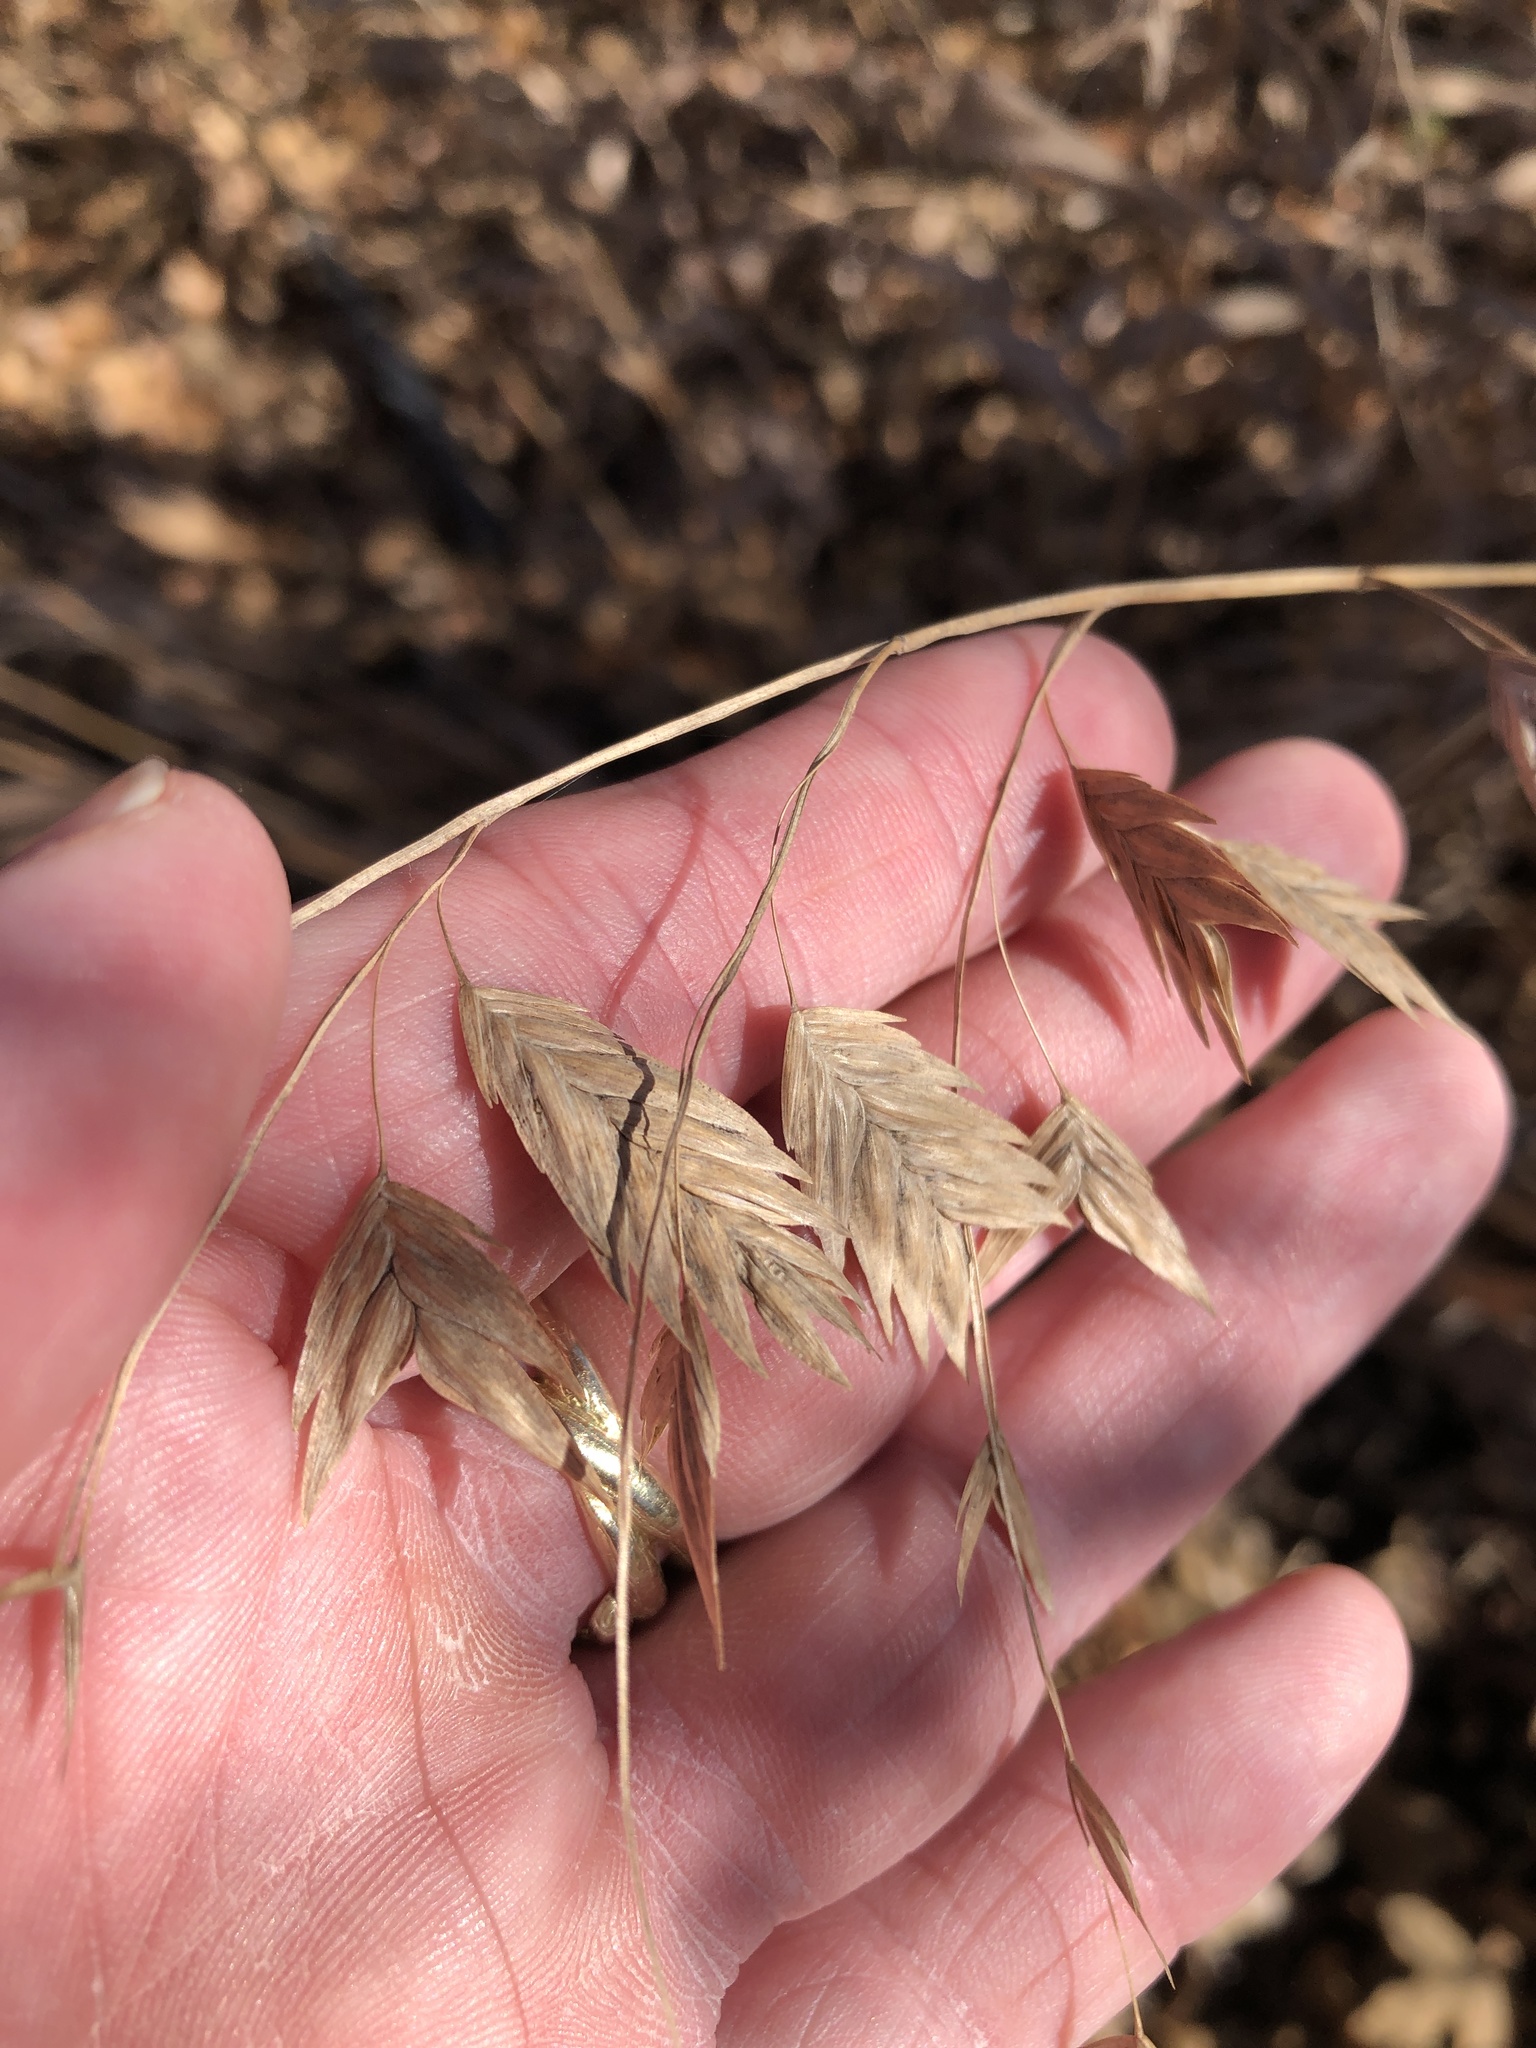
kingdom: Plantae
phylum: Tracheophyta
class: Liliopsida
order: Poales
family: Poaceae
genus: Chasmanthium
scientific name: Chasmanthium latifolium
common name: Broad-leaved chasmanthium
